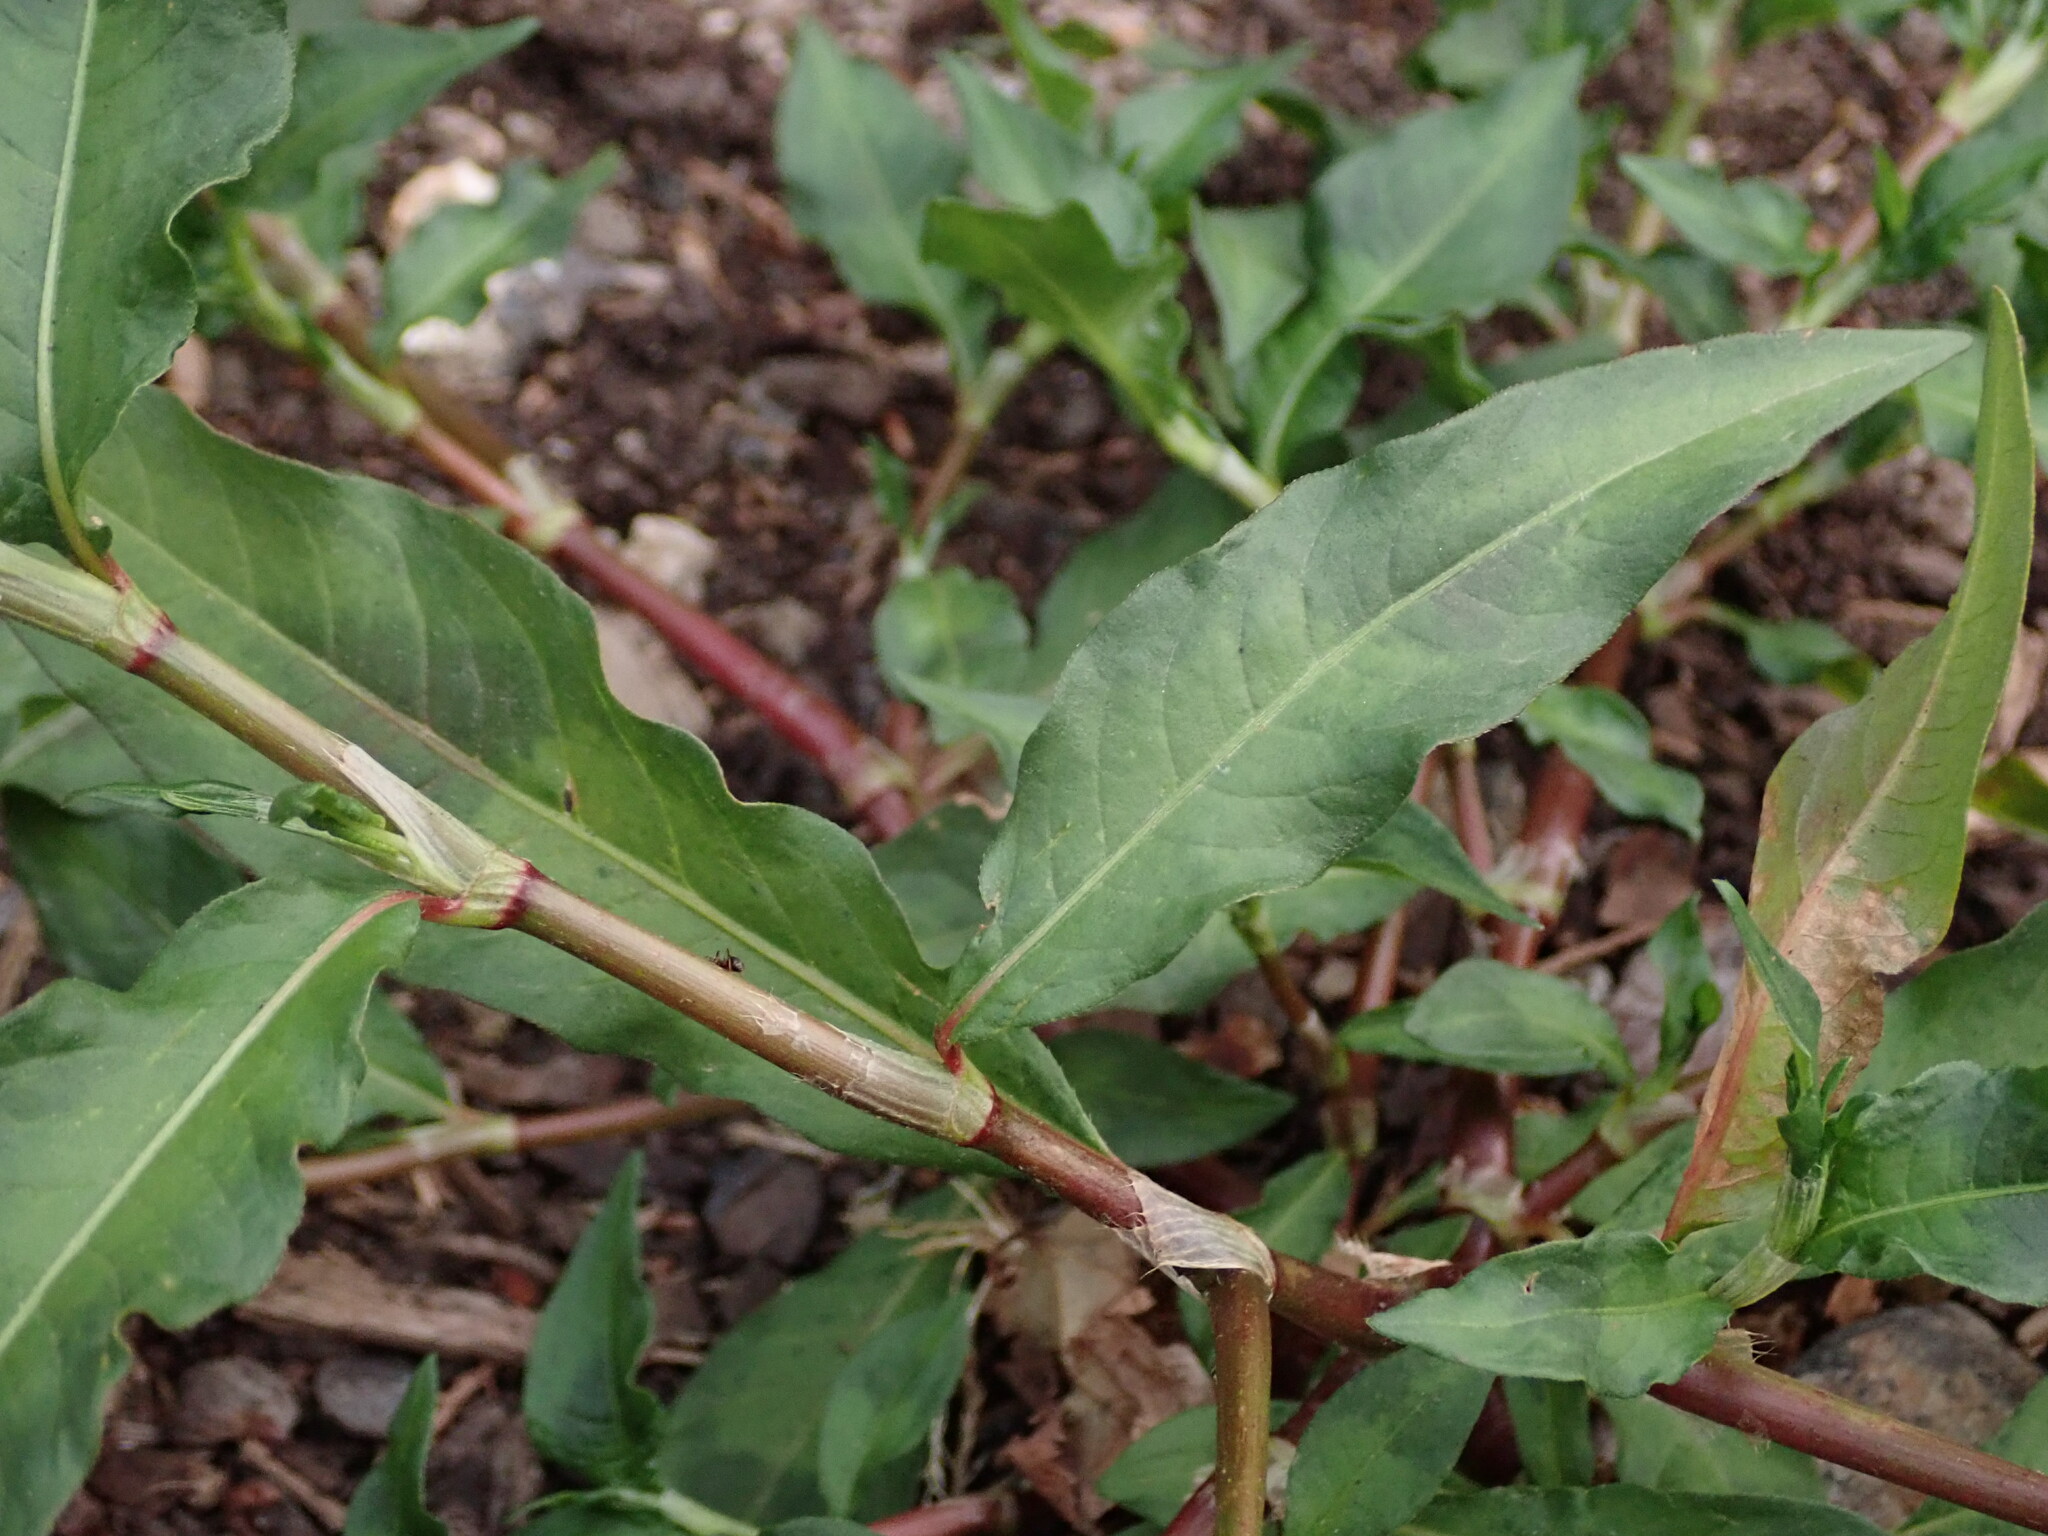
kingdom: Plantae
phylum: Tracheophyta
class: Magnoliopsida
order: Caryophyllales
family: Polygonaceae
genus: Persicaria
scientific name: Persicaria maculosa
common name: Redshank
